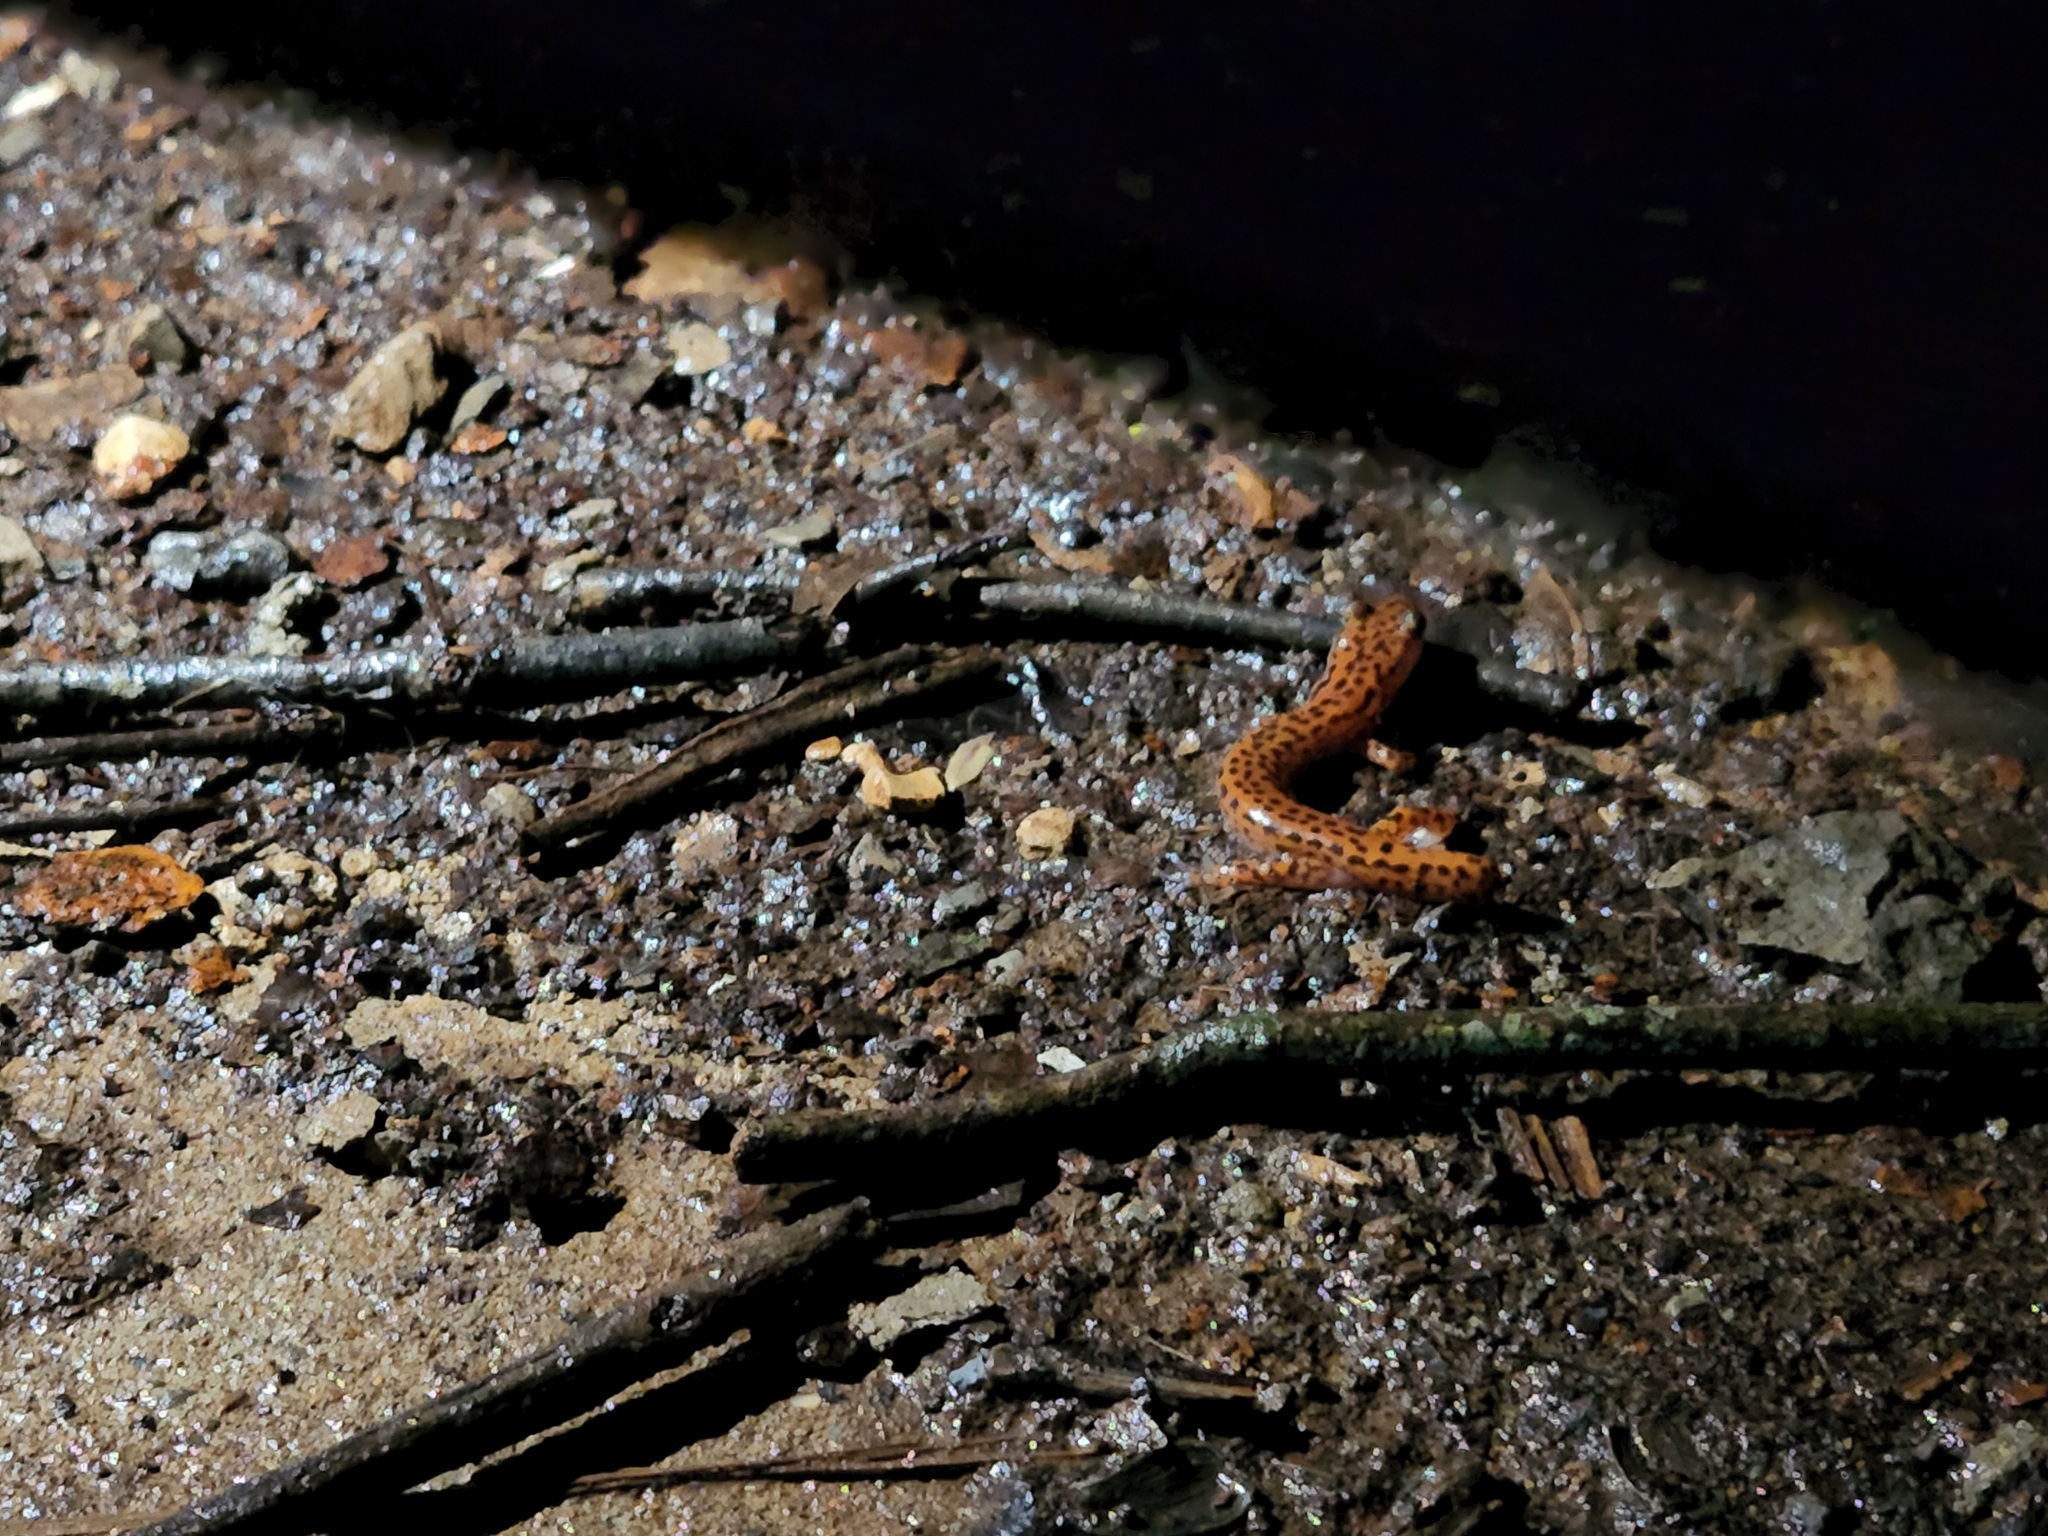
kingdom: Animalia
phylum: Chordata
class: Amphibia
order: Caudata
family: Plethodontidae
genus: Eurycea
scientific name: Eurycea lucifuga
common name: Cave salamander
